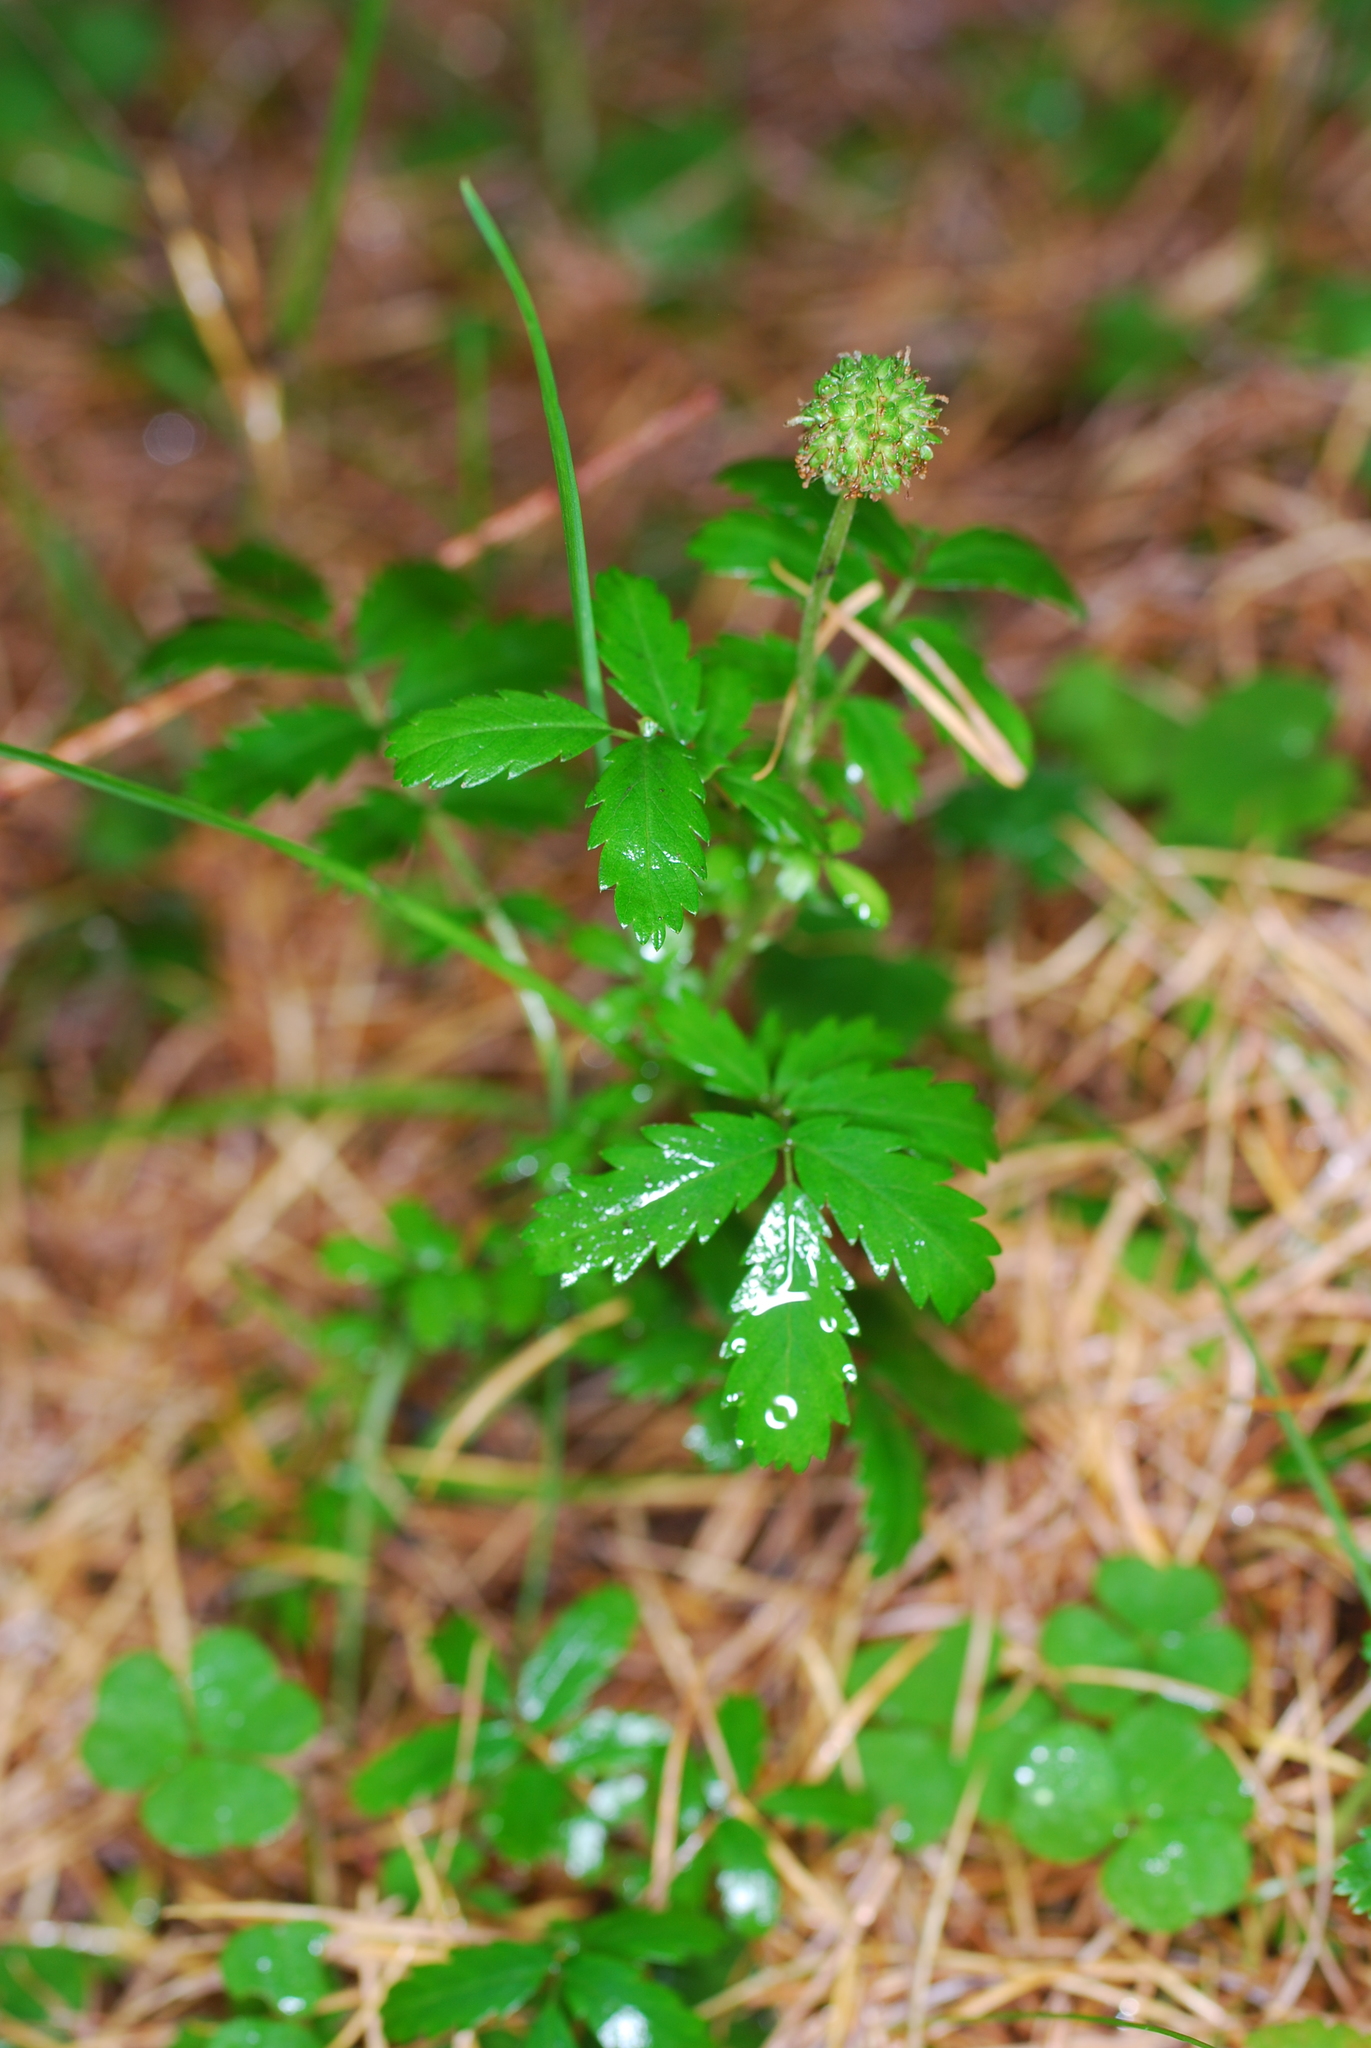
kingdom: Plantae
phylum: Tracheophyta
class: Magnoliopsida
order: Rosales
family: Rosaceae
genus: Acaena
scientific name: Acaena novae-zelandiae
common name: Pirri-pirri-bur
